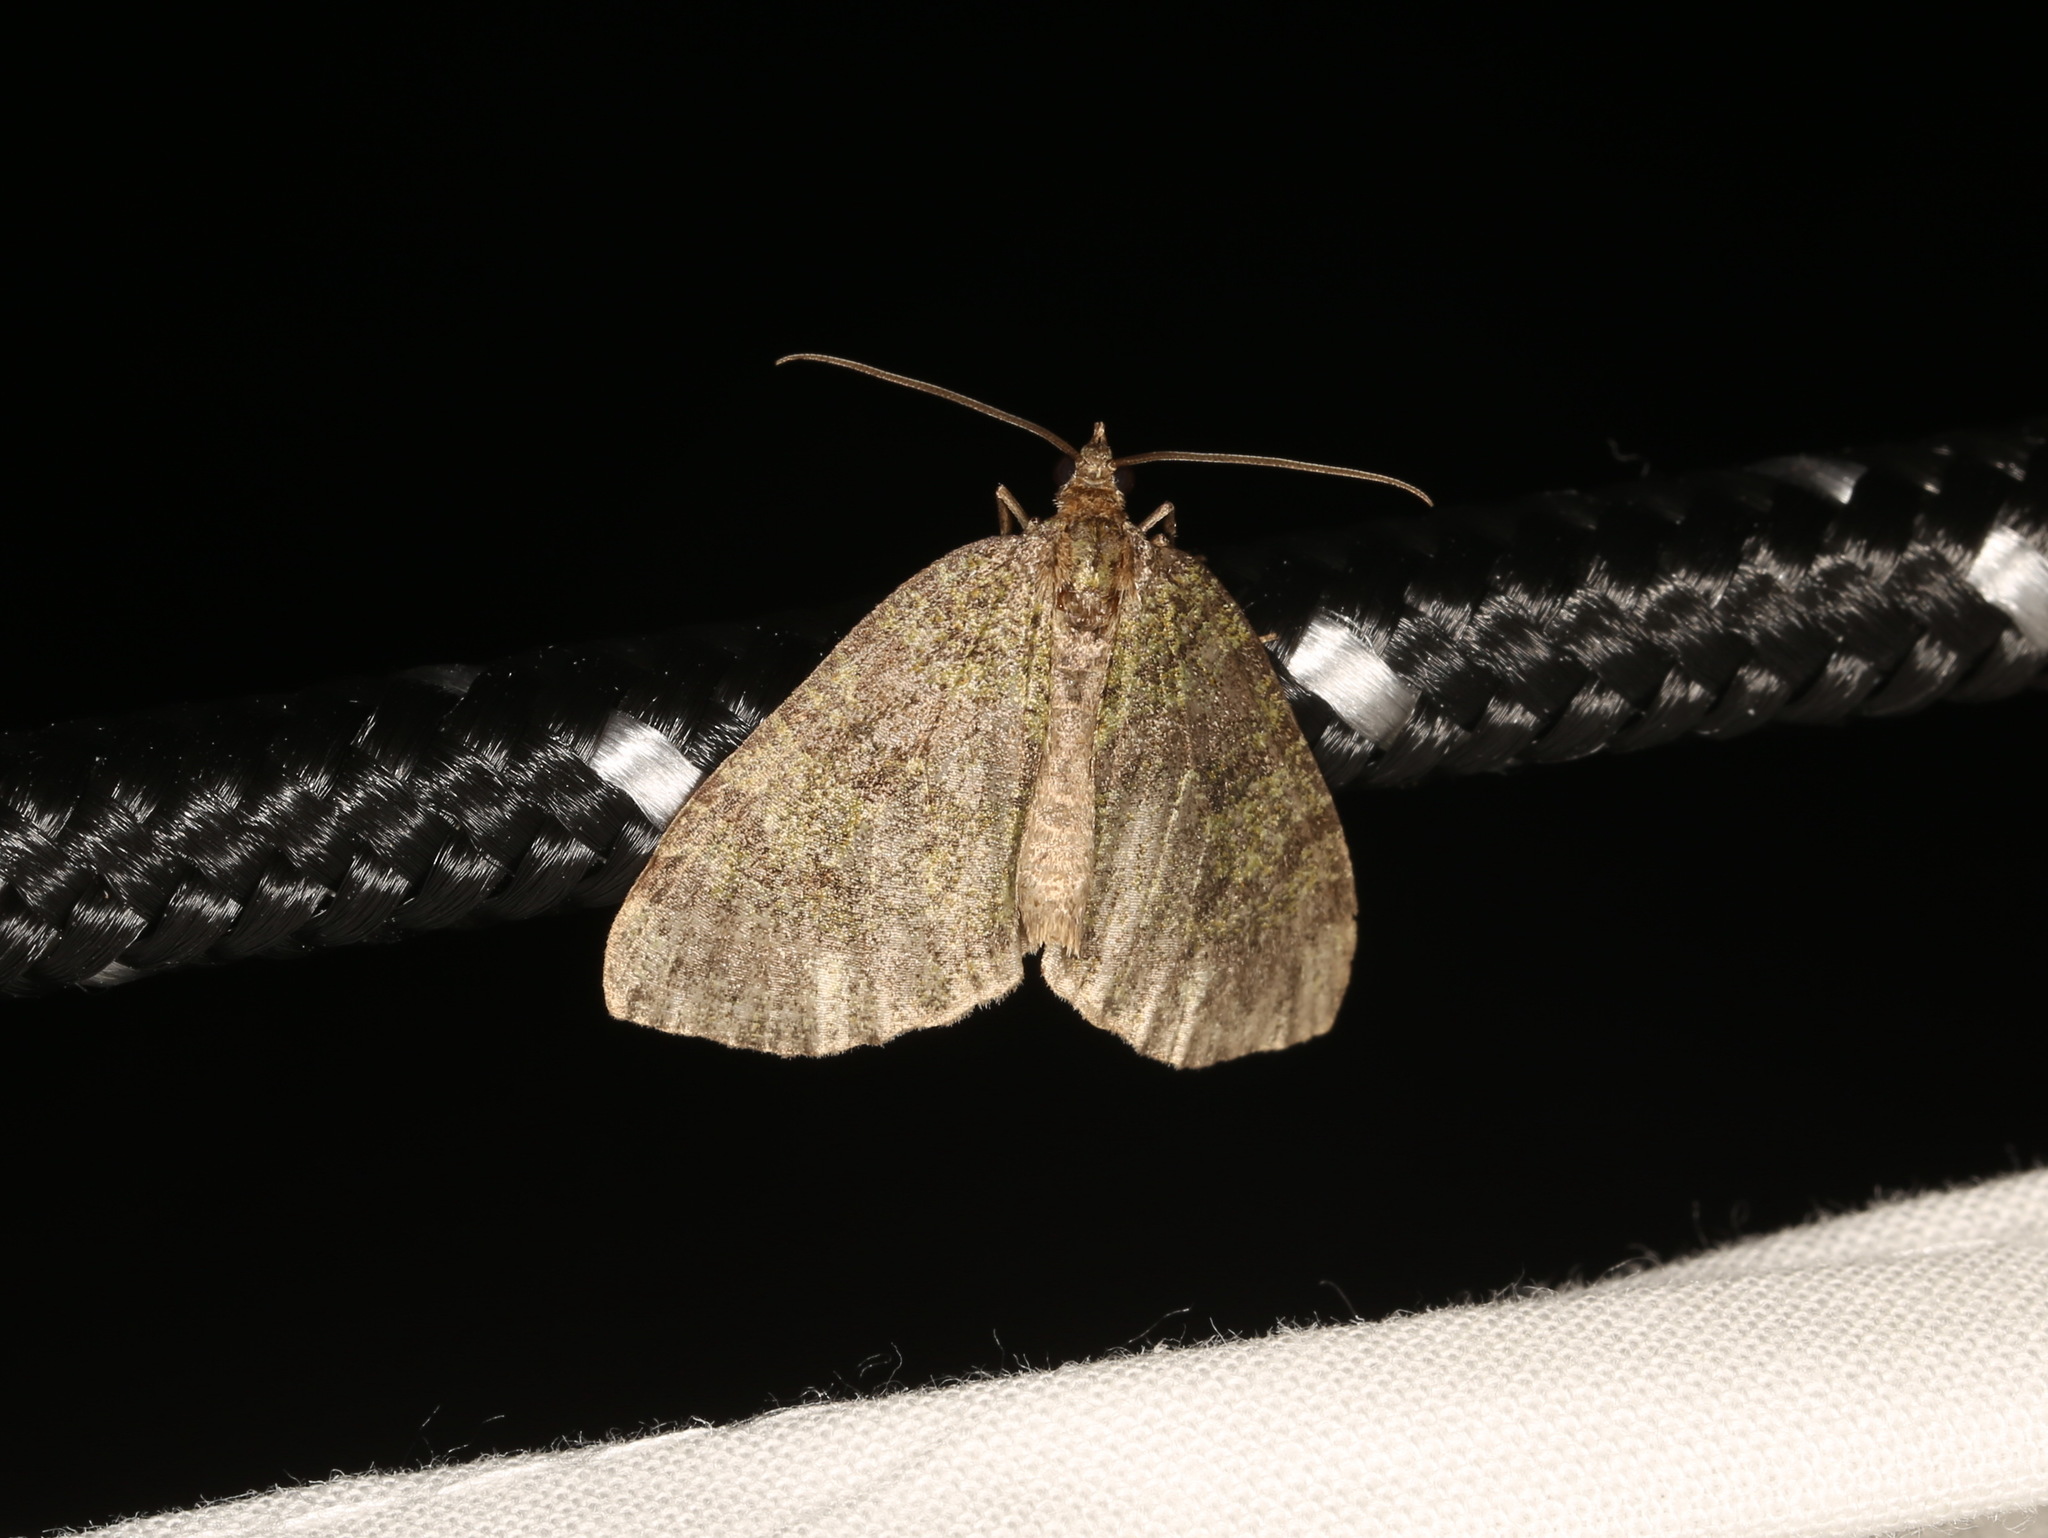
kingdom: Animalia
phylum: Arthropoda
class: Insecta
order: Lepidoptera
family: Geometridae
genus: Hydriomena
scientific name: Hydriomena furcata
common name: July highflyer
